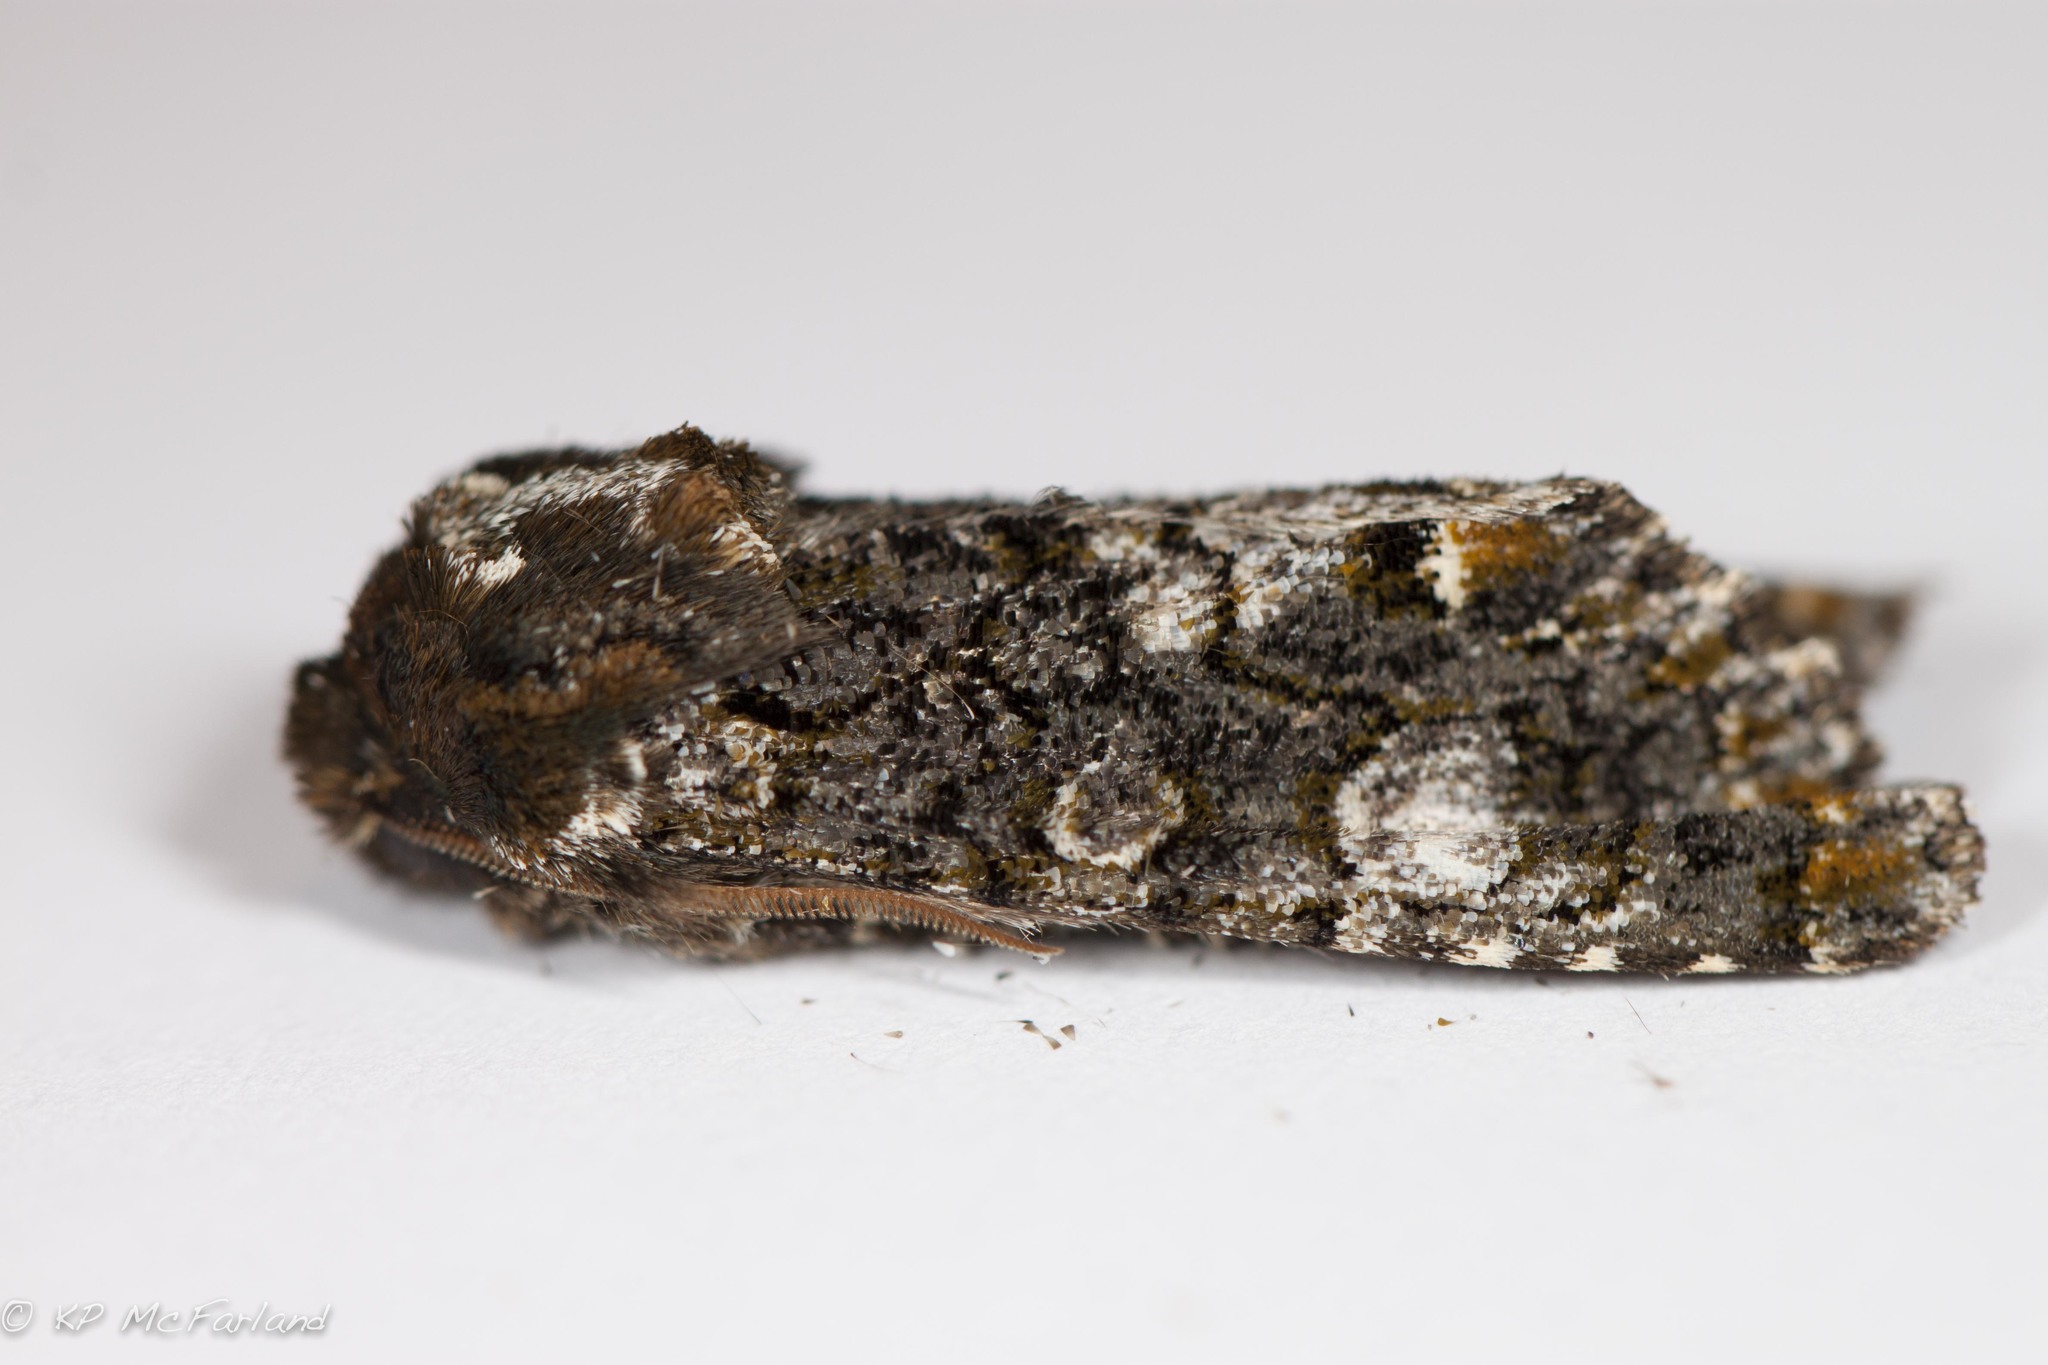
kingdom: Animalia
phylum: Arthropoda
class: Insecta
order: Lepidoptera
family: Noctuidae
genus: Psaphida
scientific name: Psaphida grotei
